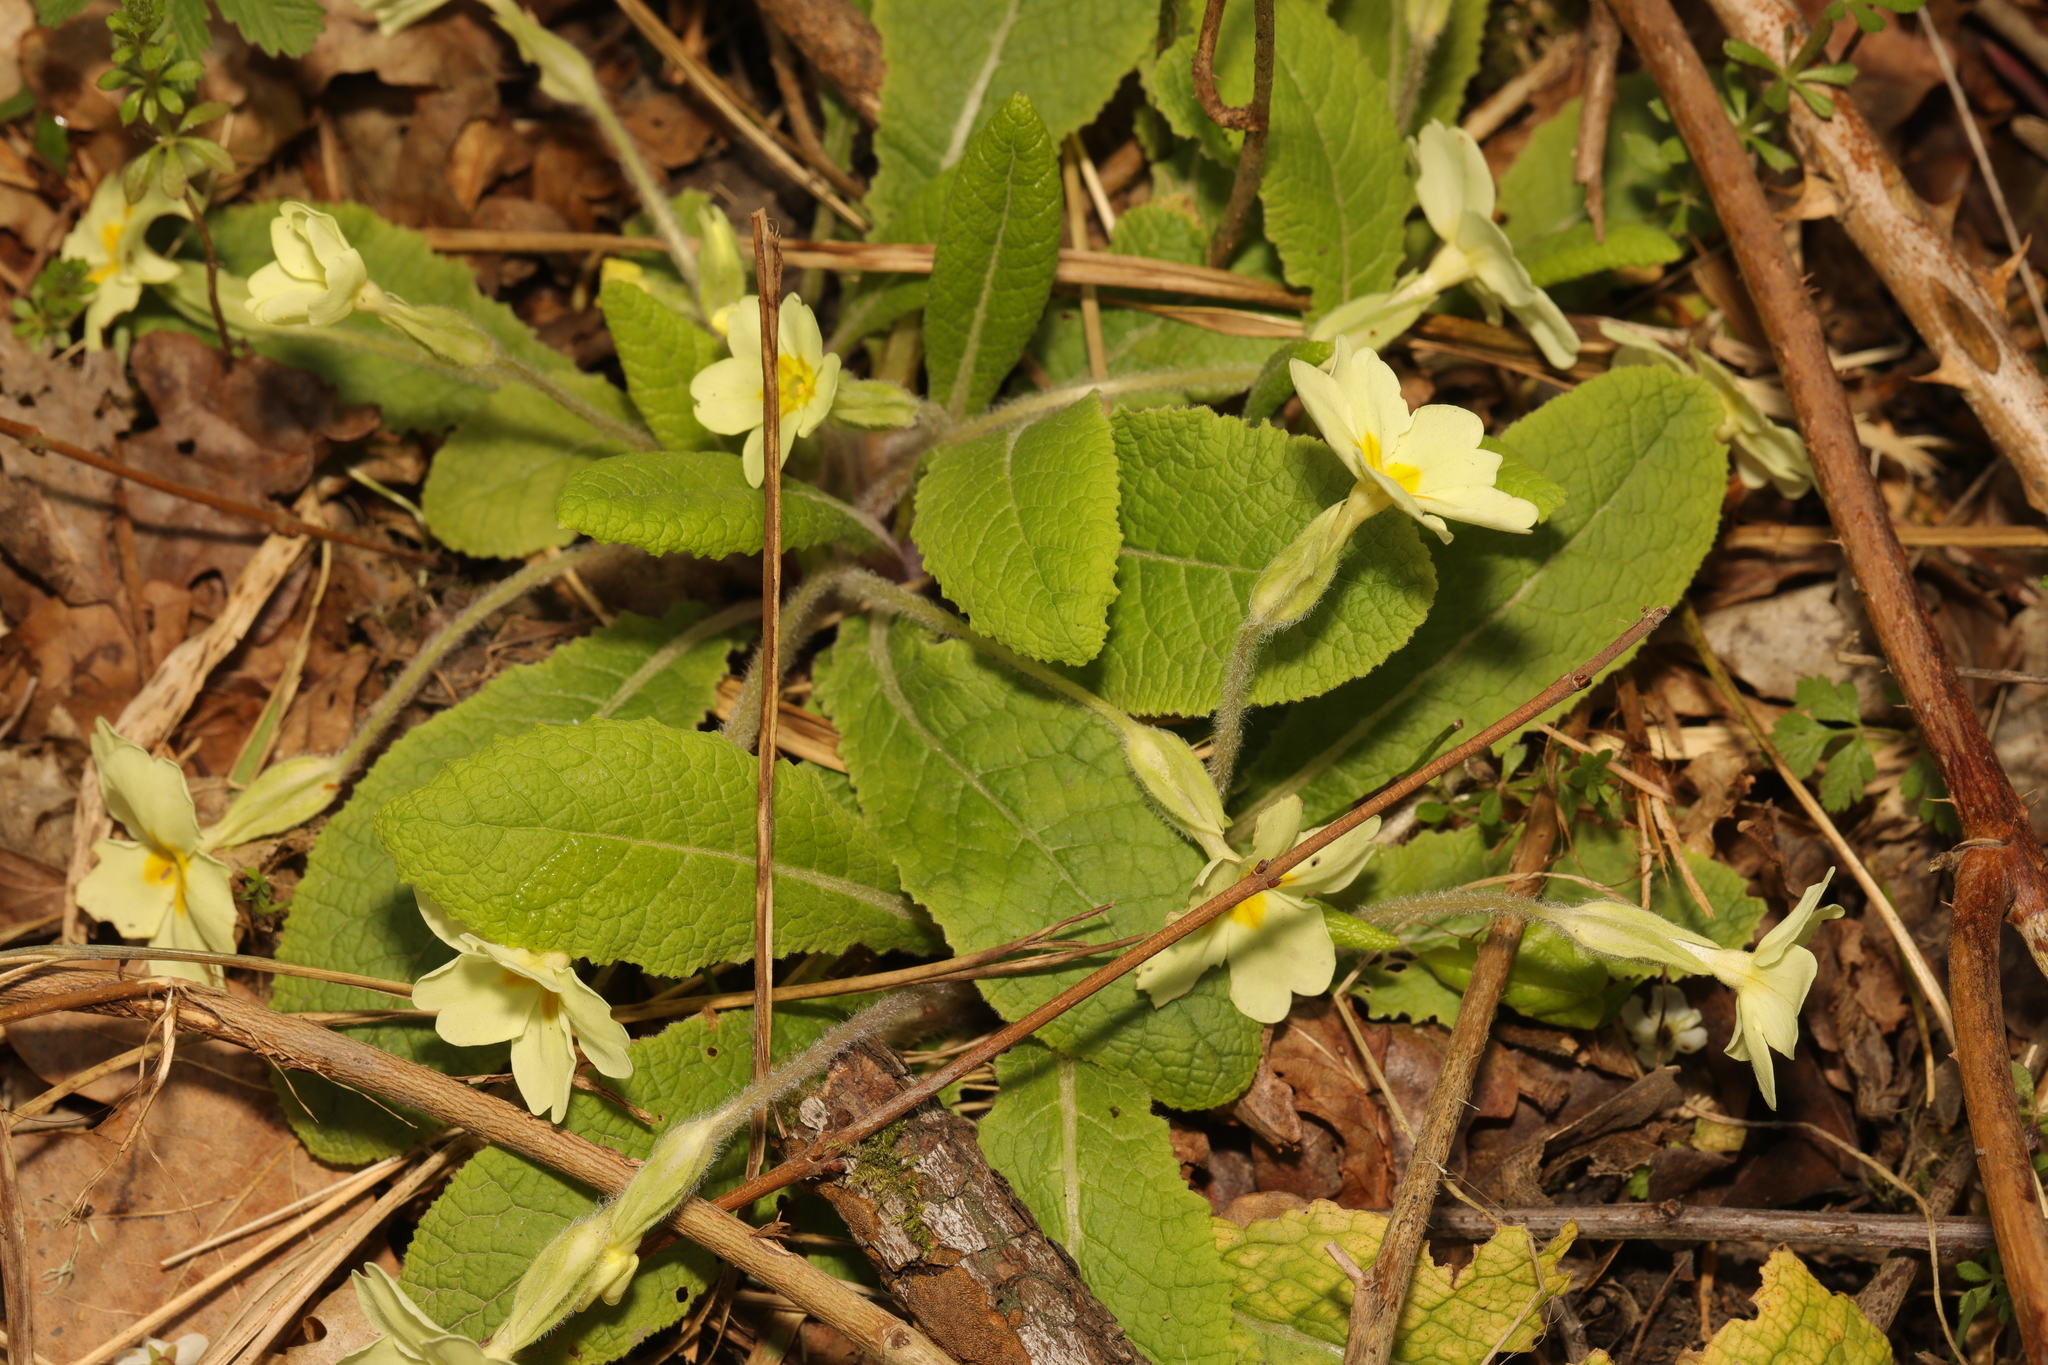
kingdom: Plantae
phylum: Tracheophyta
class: Magnoliopsida
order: Ericales
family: Primulaceae
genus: Primula
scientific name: Primula vulgaris
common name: Primrose
